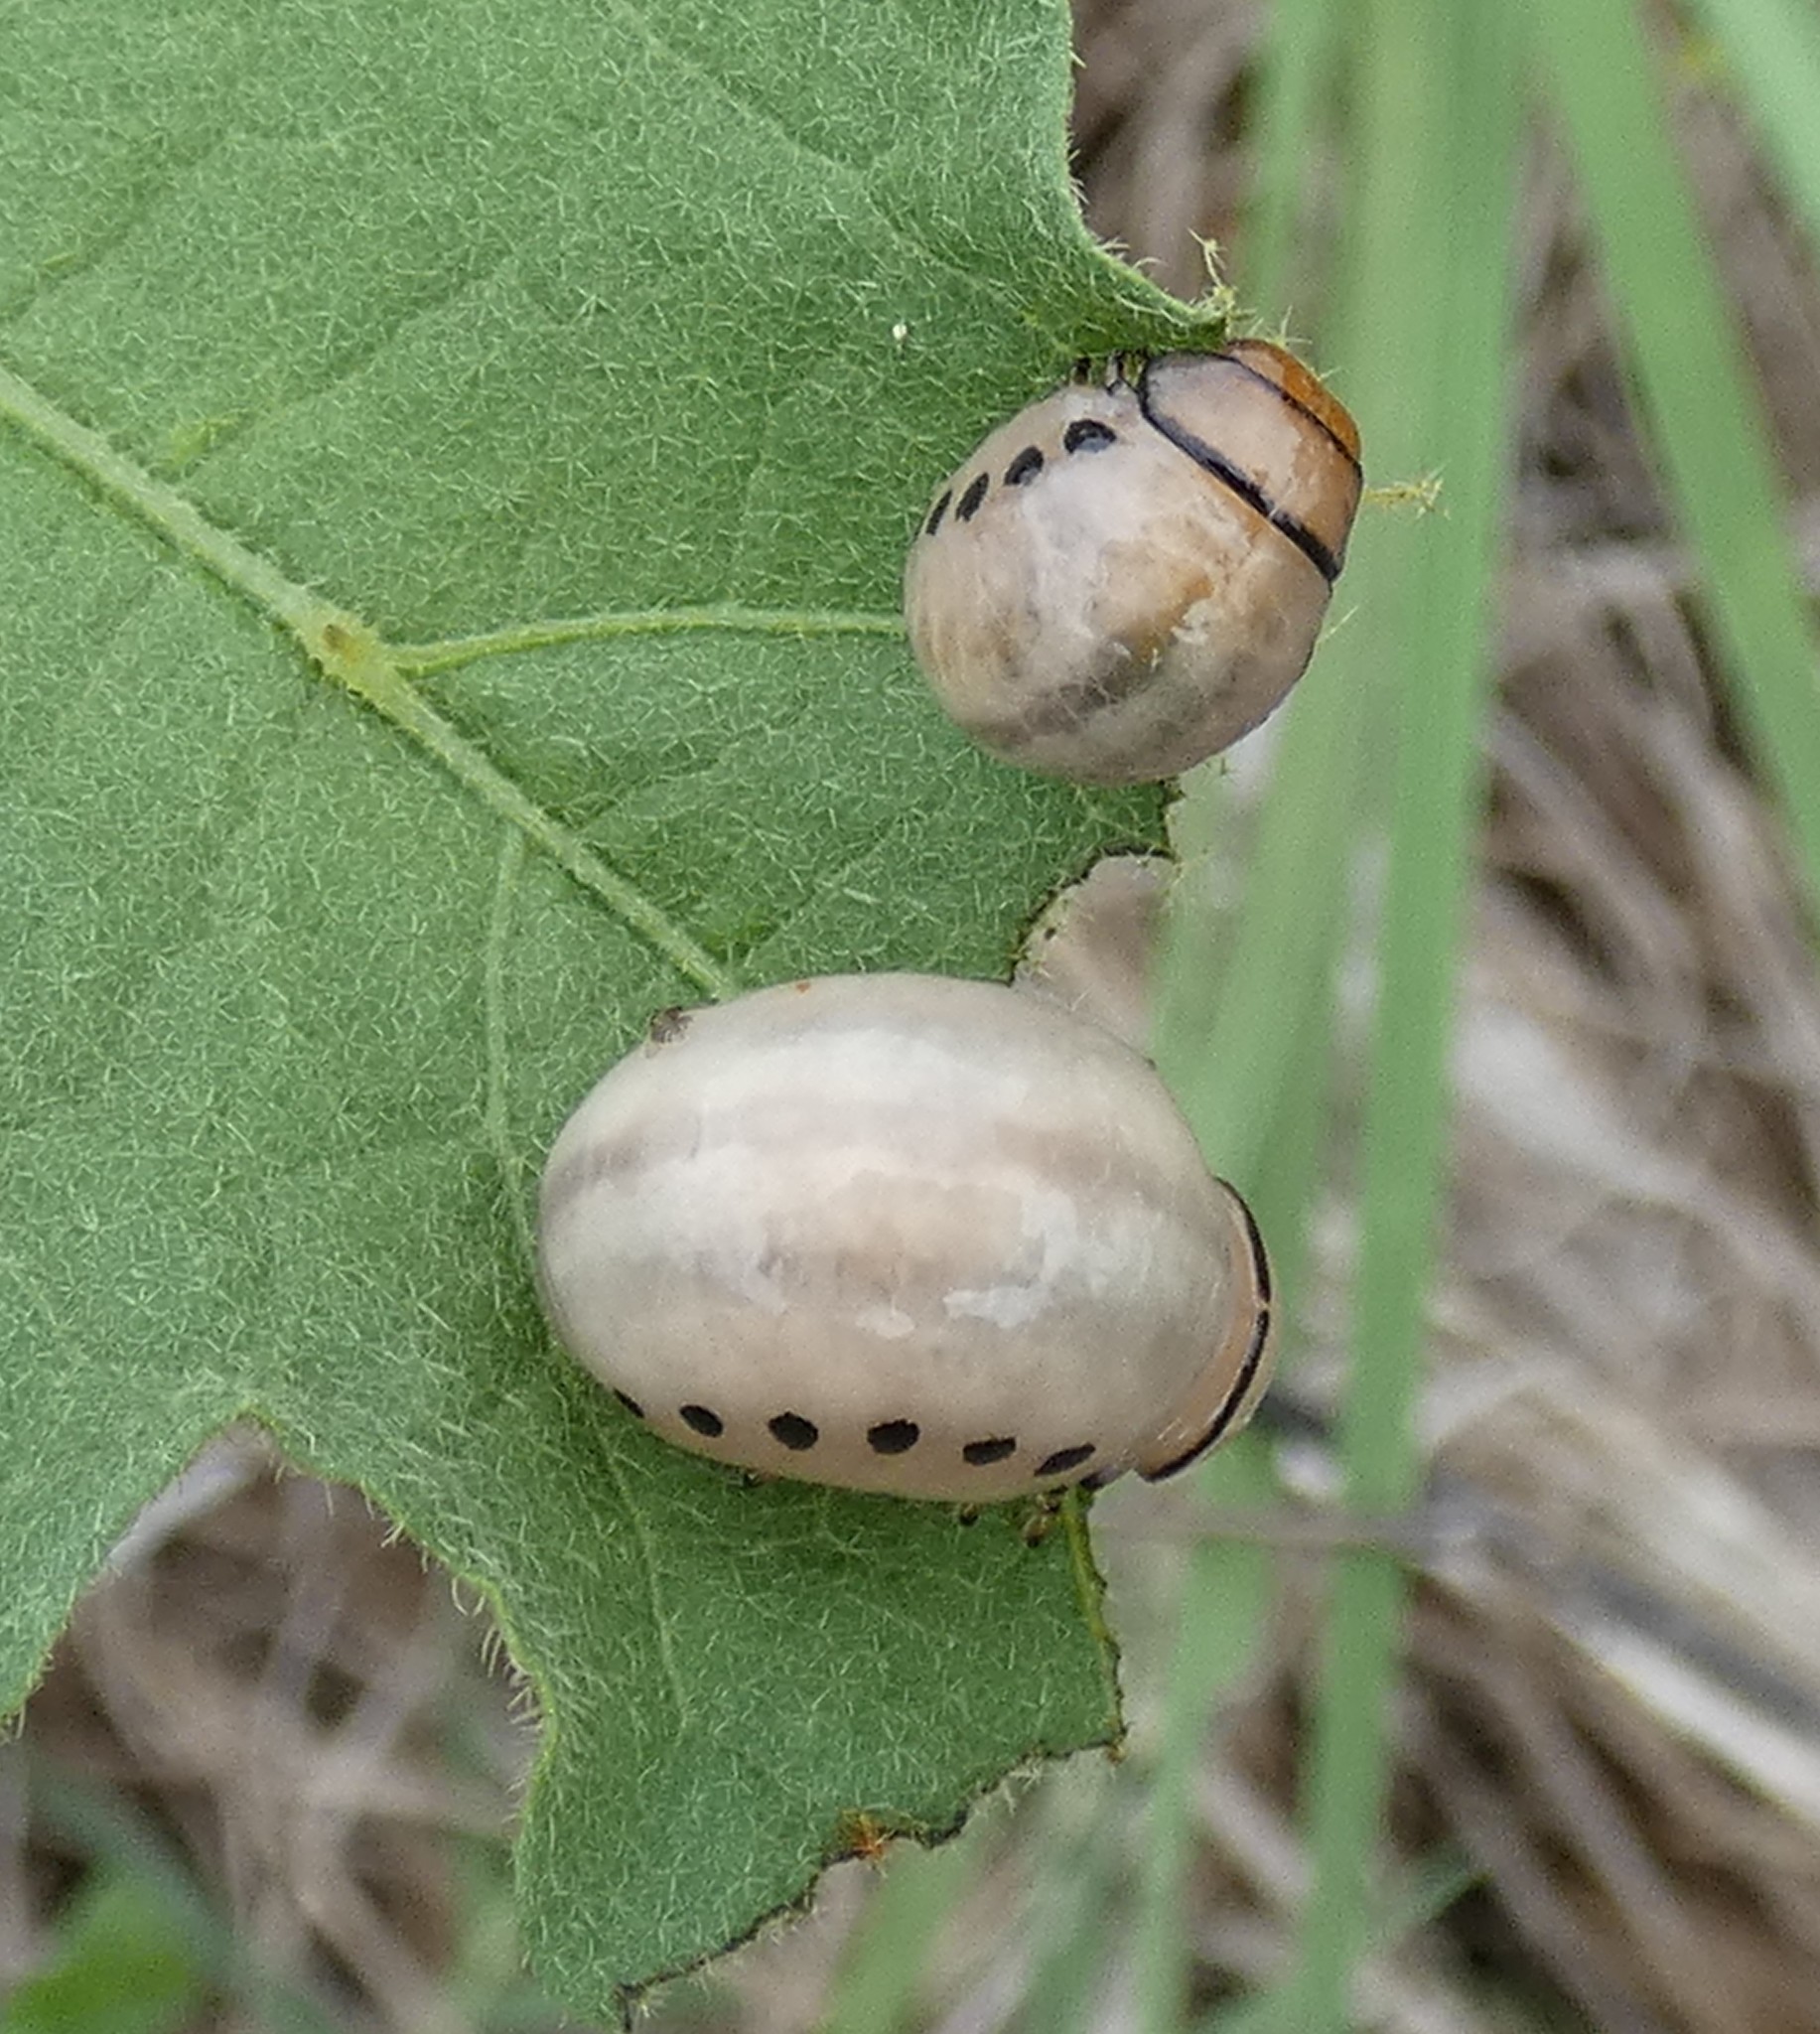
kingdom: Animalia
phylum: Arthropoda
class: Insecta
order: Coleoptera
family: Chrysomelidae
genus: Leptinotarsa
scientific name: Leptinotarsa juncta
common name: False potato beetle
